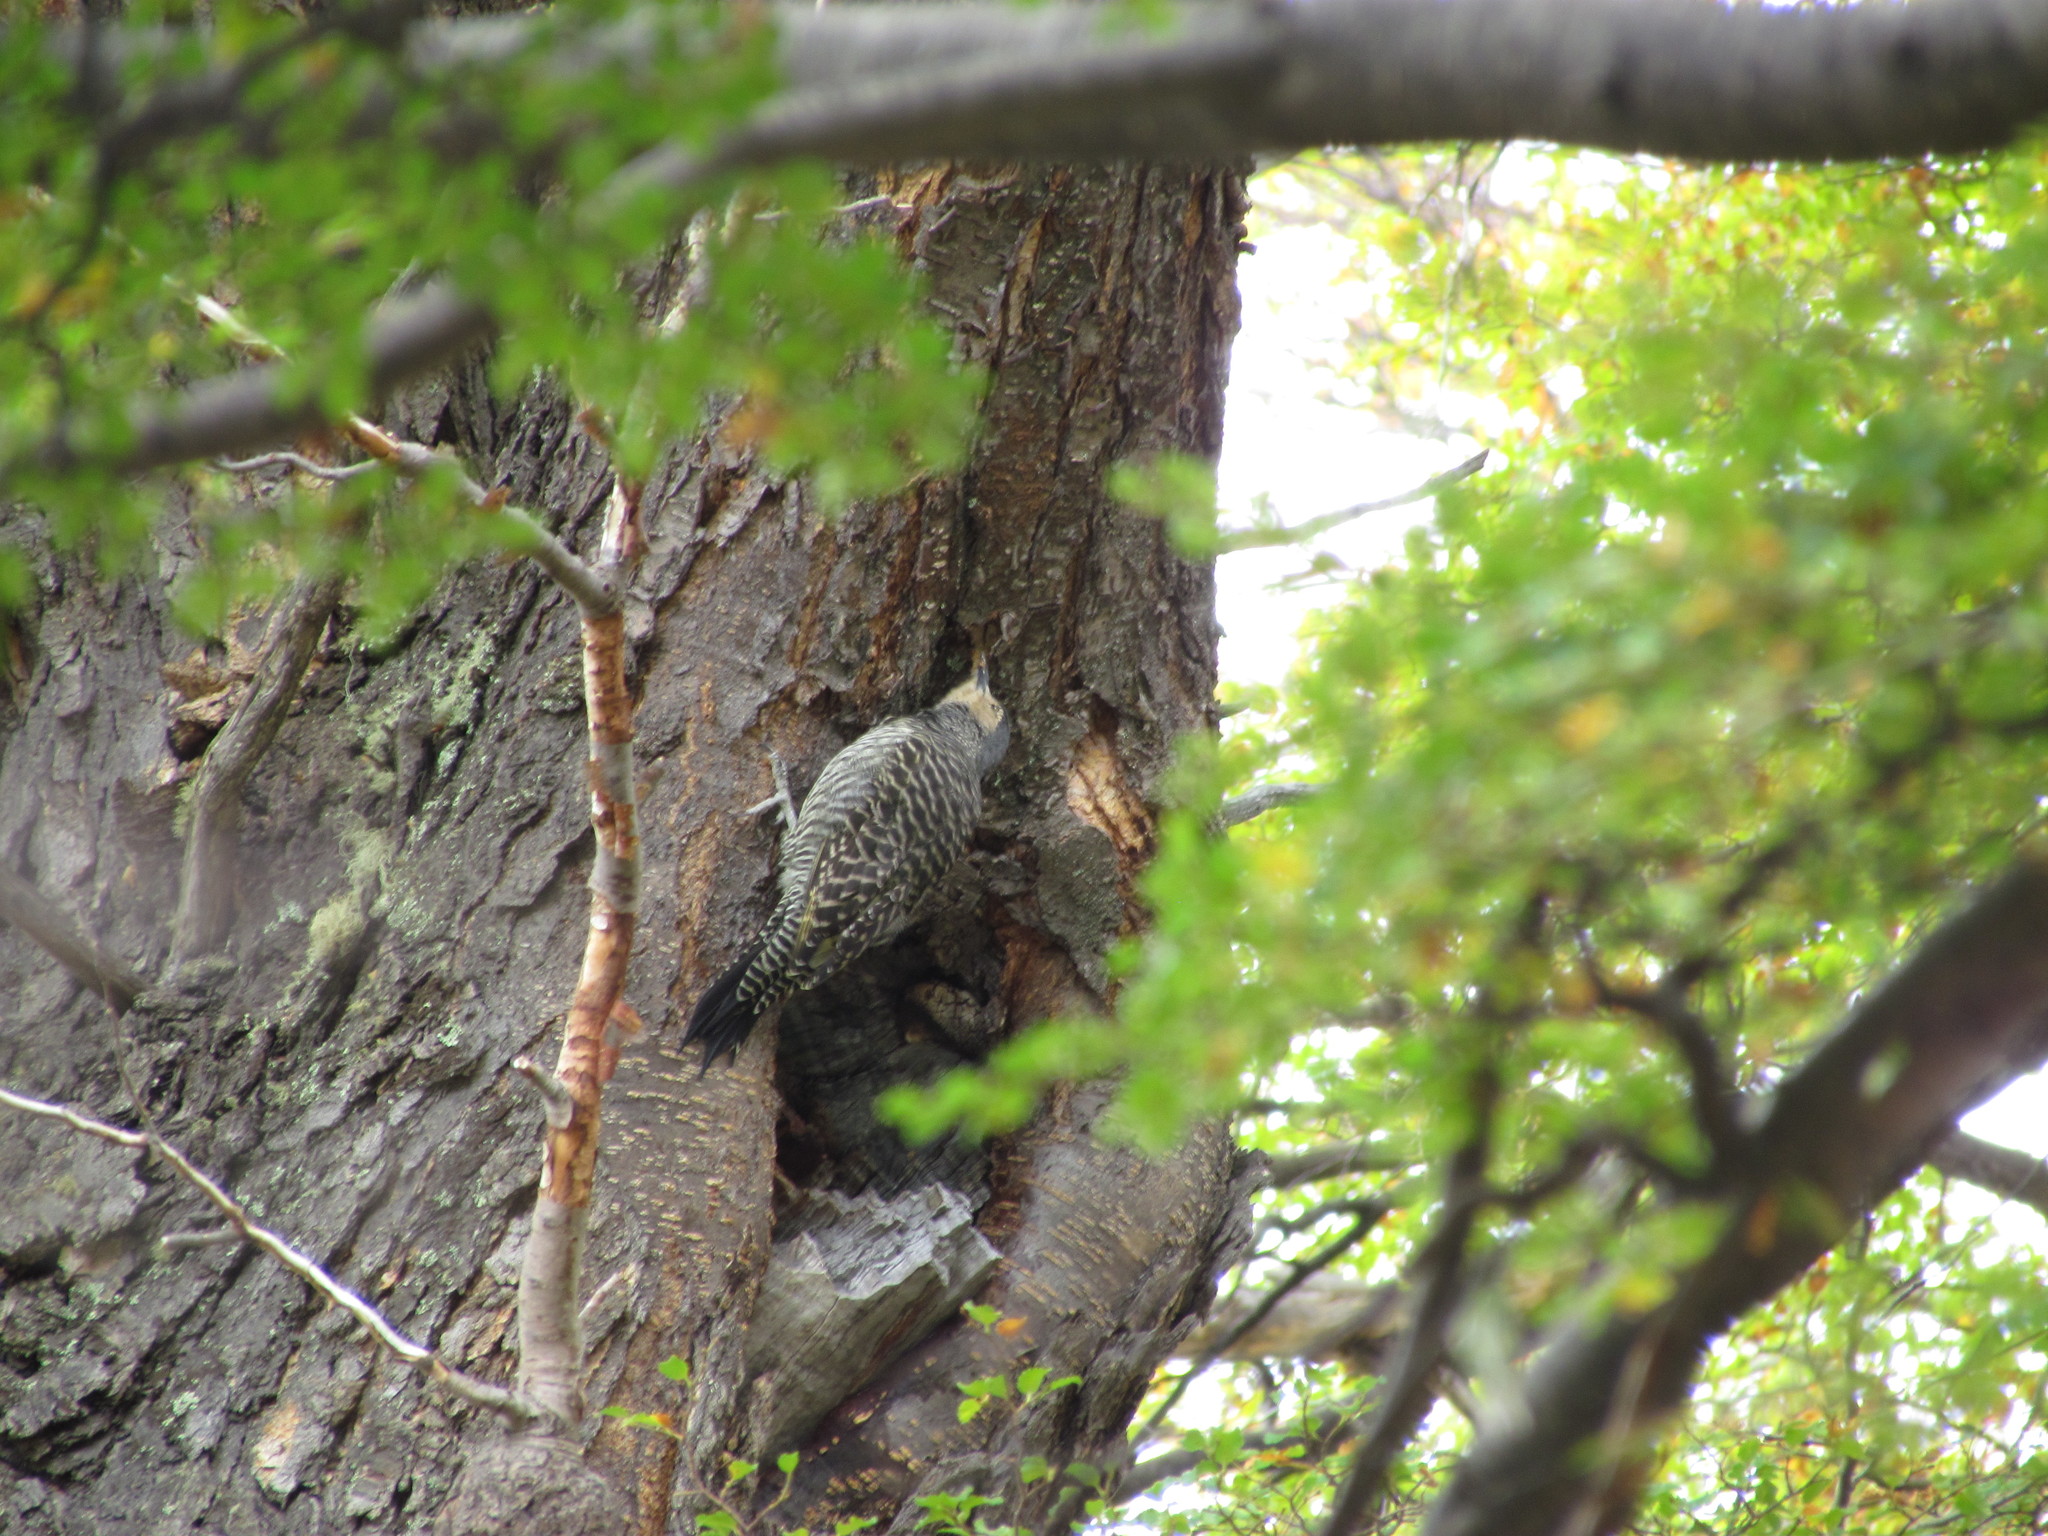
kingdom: Animalia
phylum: Chordata
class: Aves
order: Piciformes
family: Picidae
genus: Colaptes
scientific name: Colaptes pitius
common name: Chilean flicker
